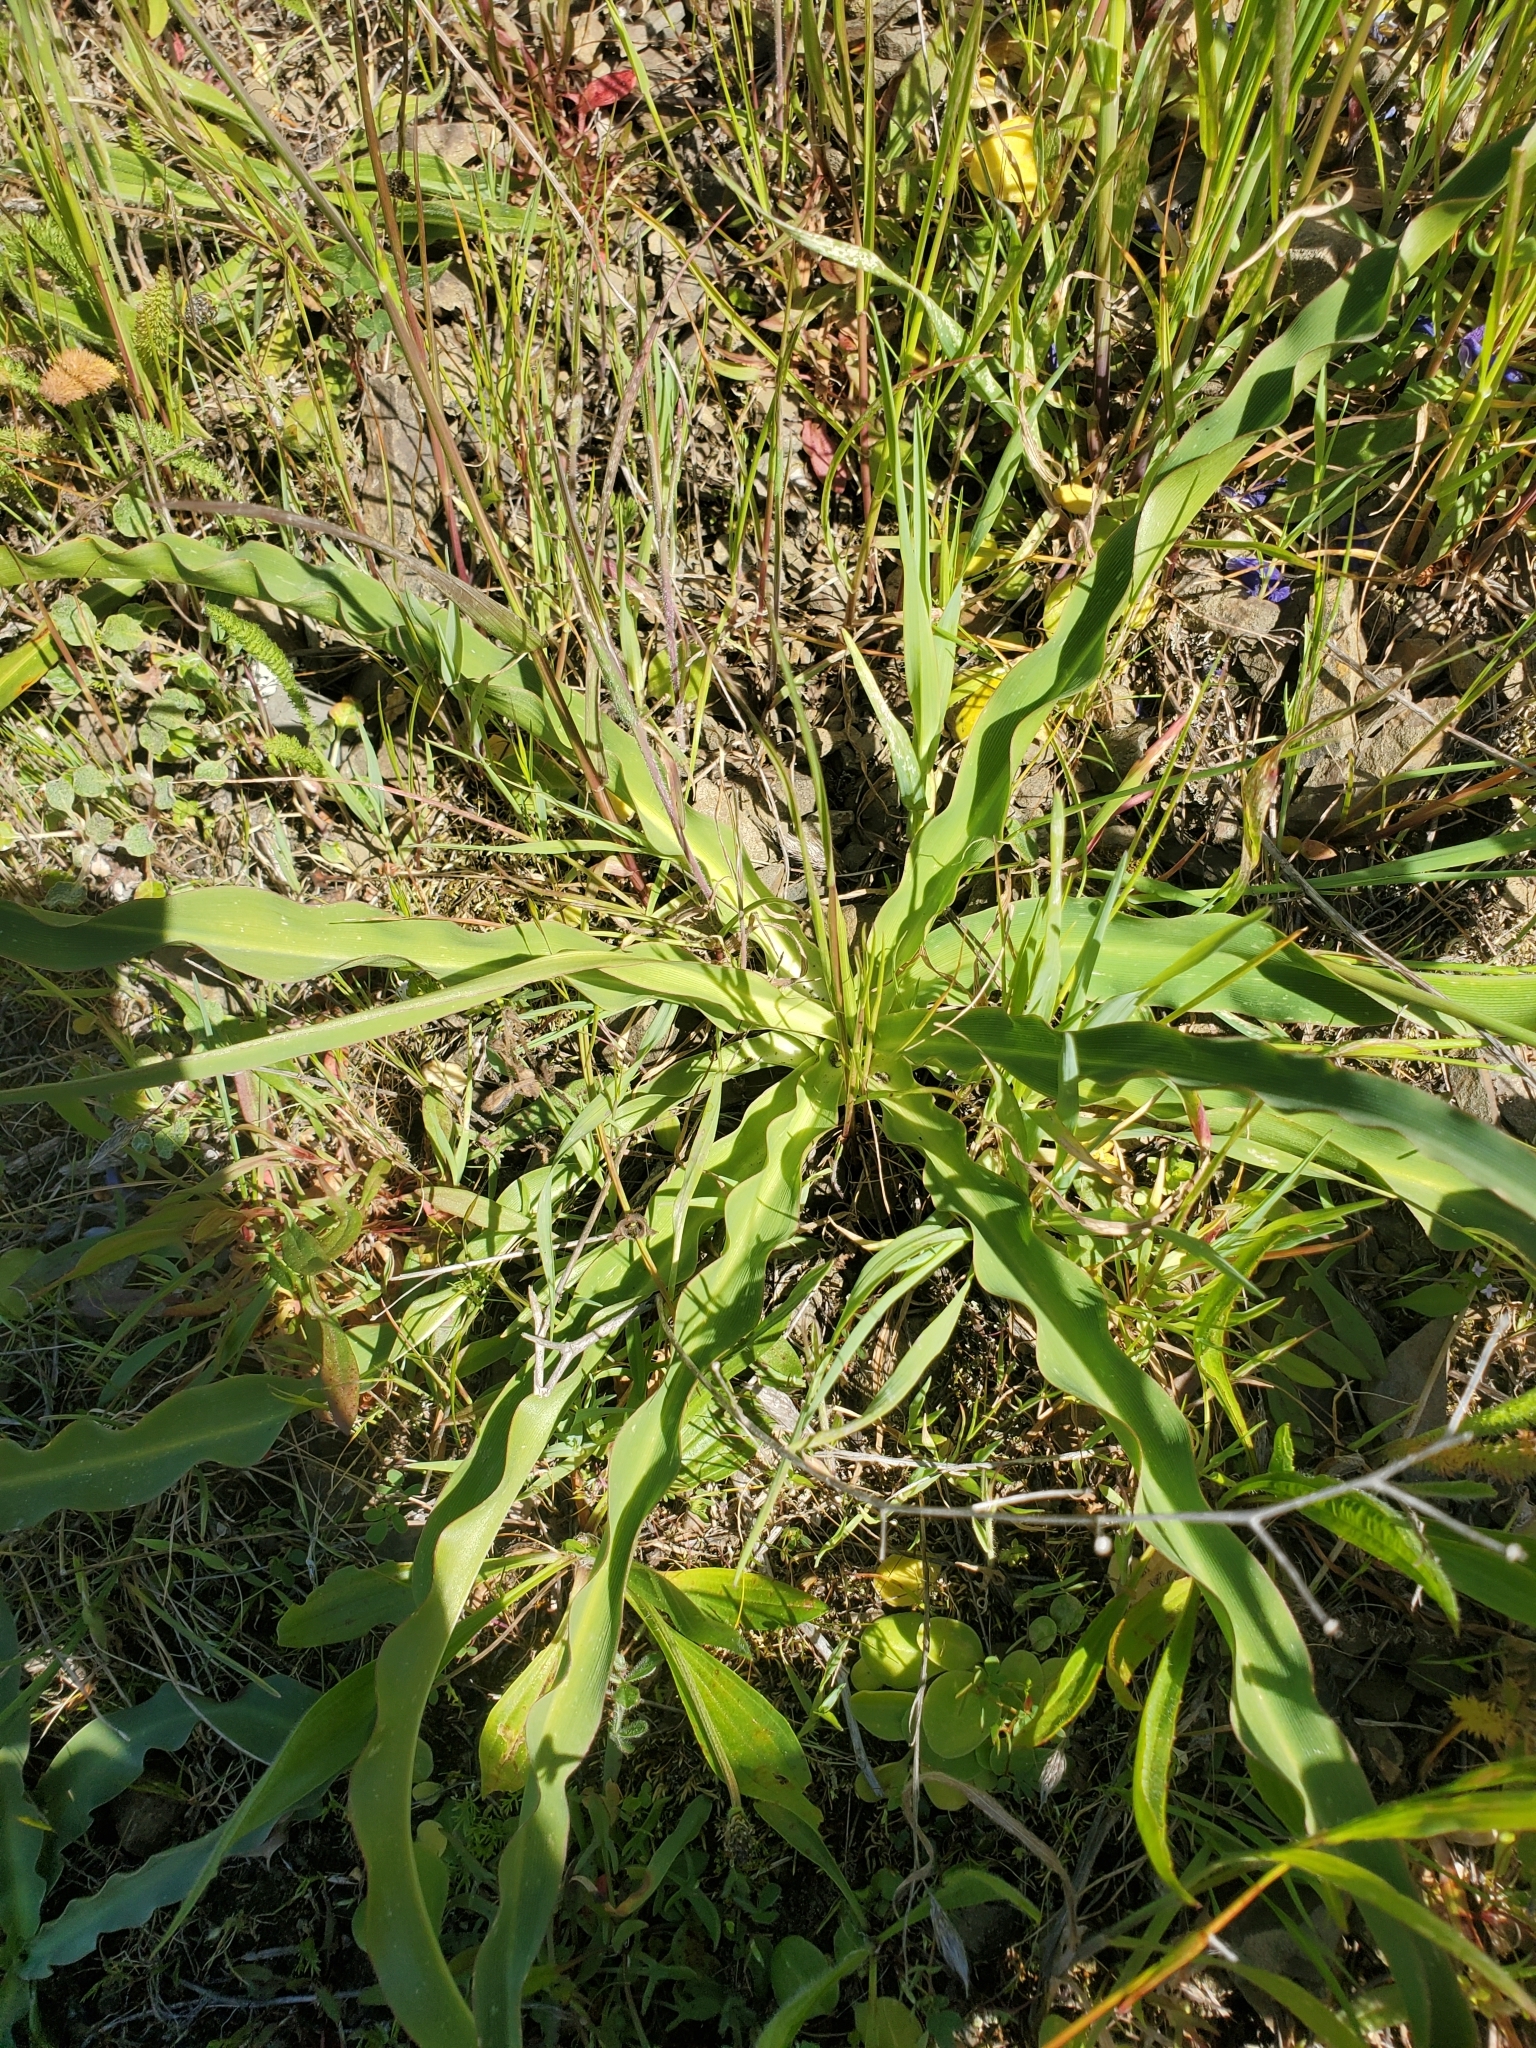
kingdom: Plantae
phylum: Tracheophyta
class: Liliopsida
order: Asparagales
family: Asparagaceae
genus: Chlorogalum
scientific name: Chlorogalum pomeridianum
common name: Amole
